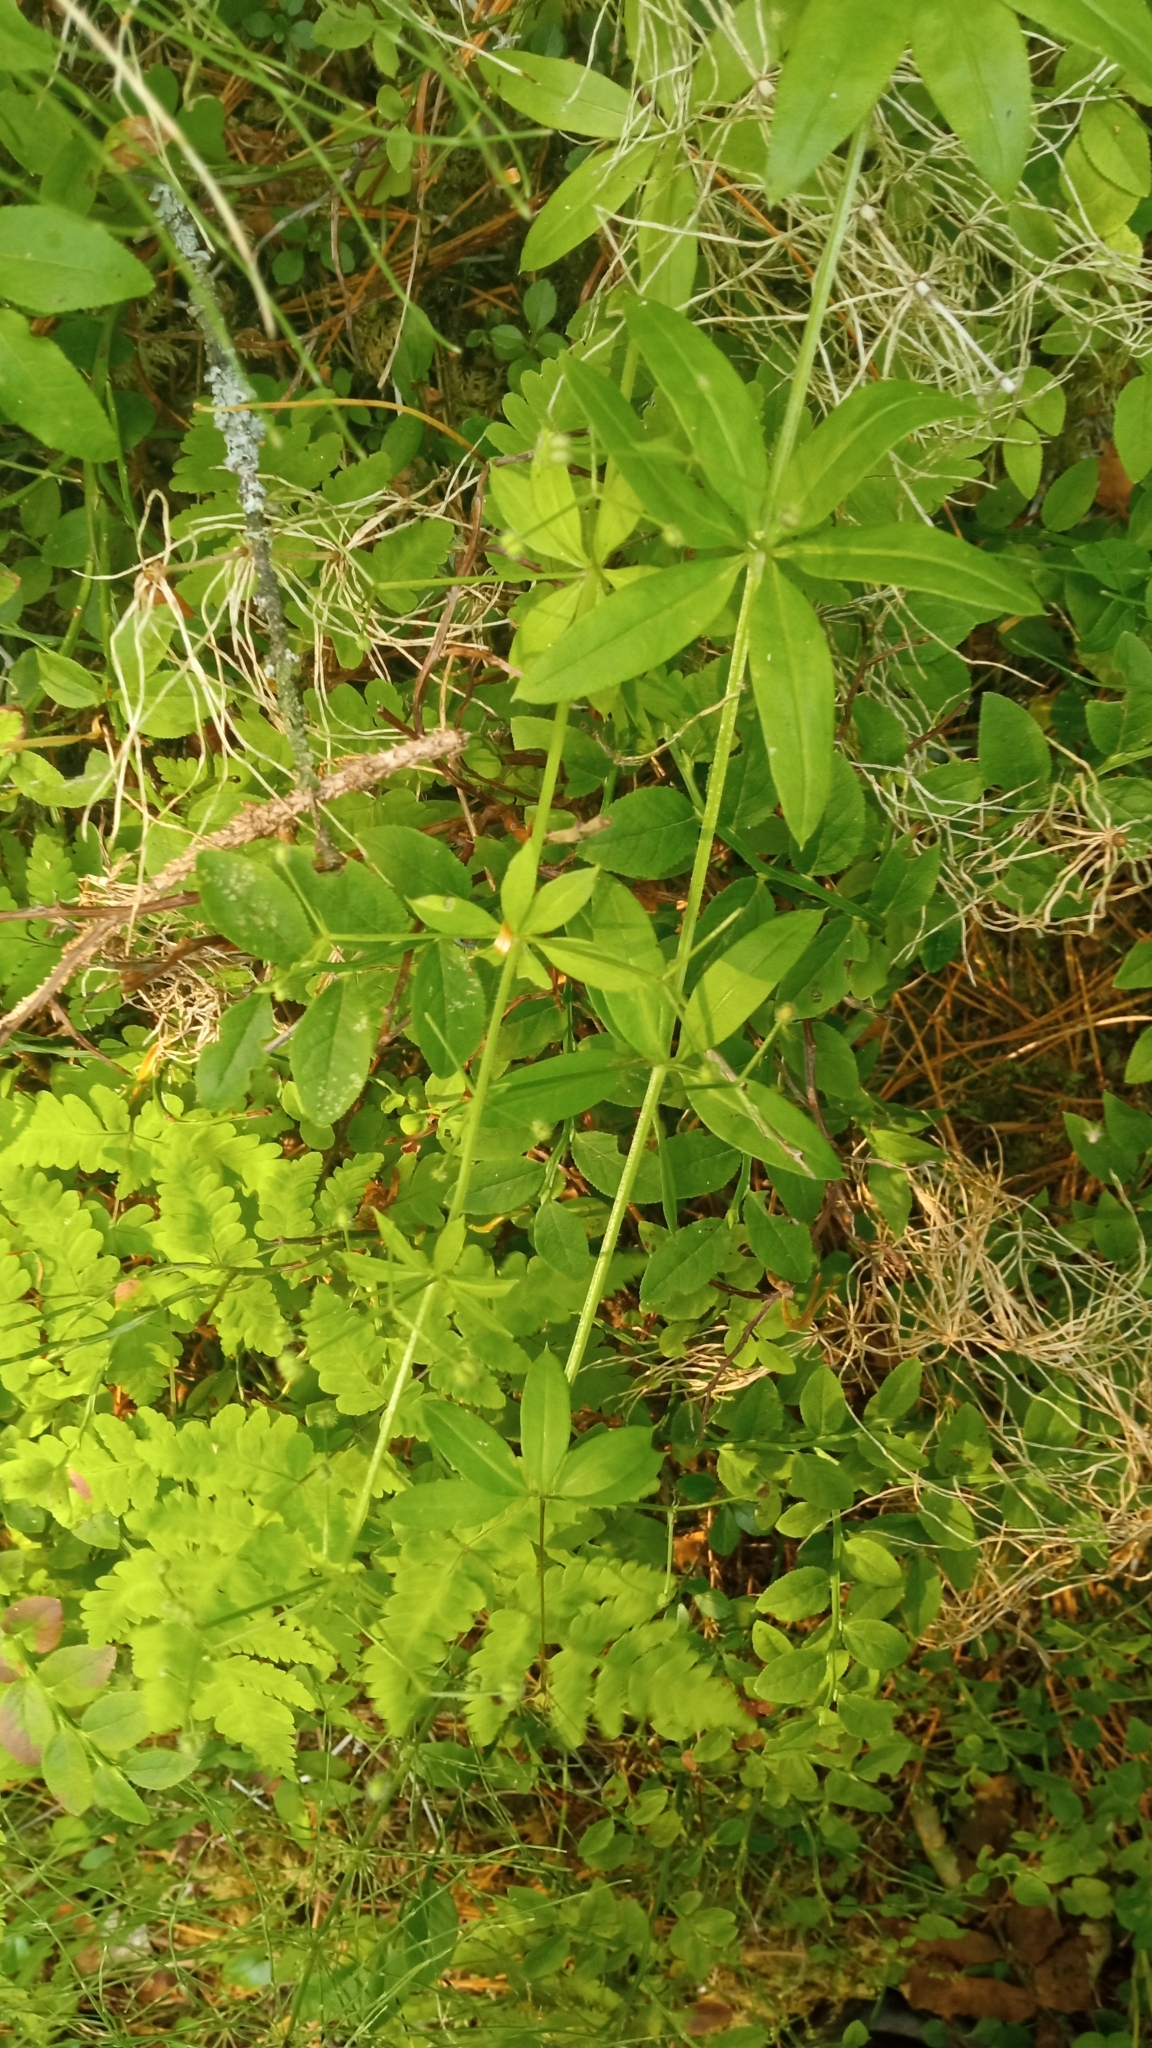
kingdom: Plantae
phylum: Tracheophyta
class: Magnoliopsida
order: Gentianales
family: Rubiaceae
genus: Galium
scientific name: Galium triflorum
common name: Fragrant bedstraw
